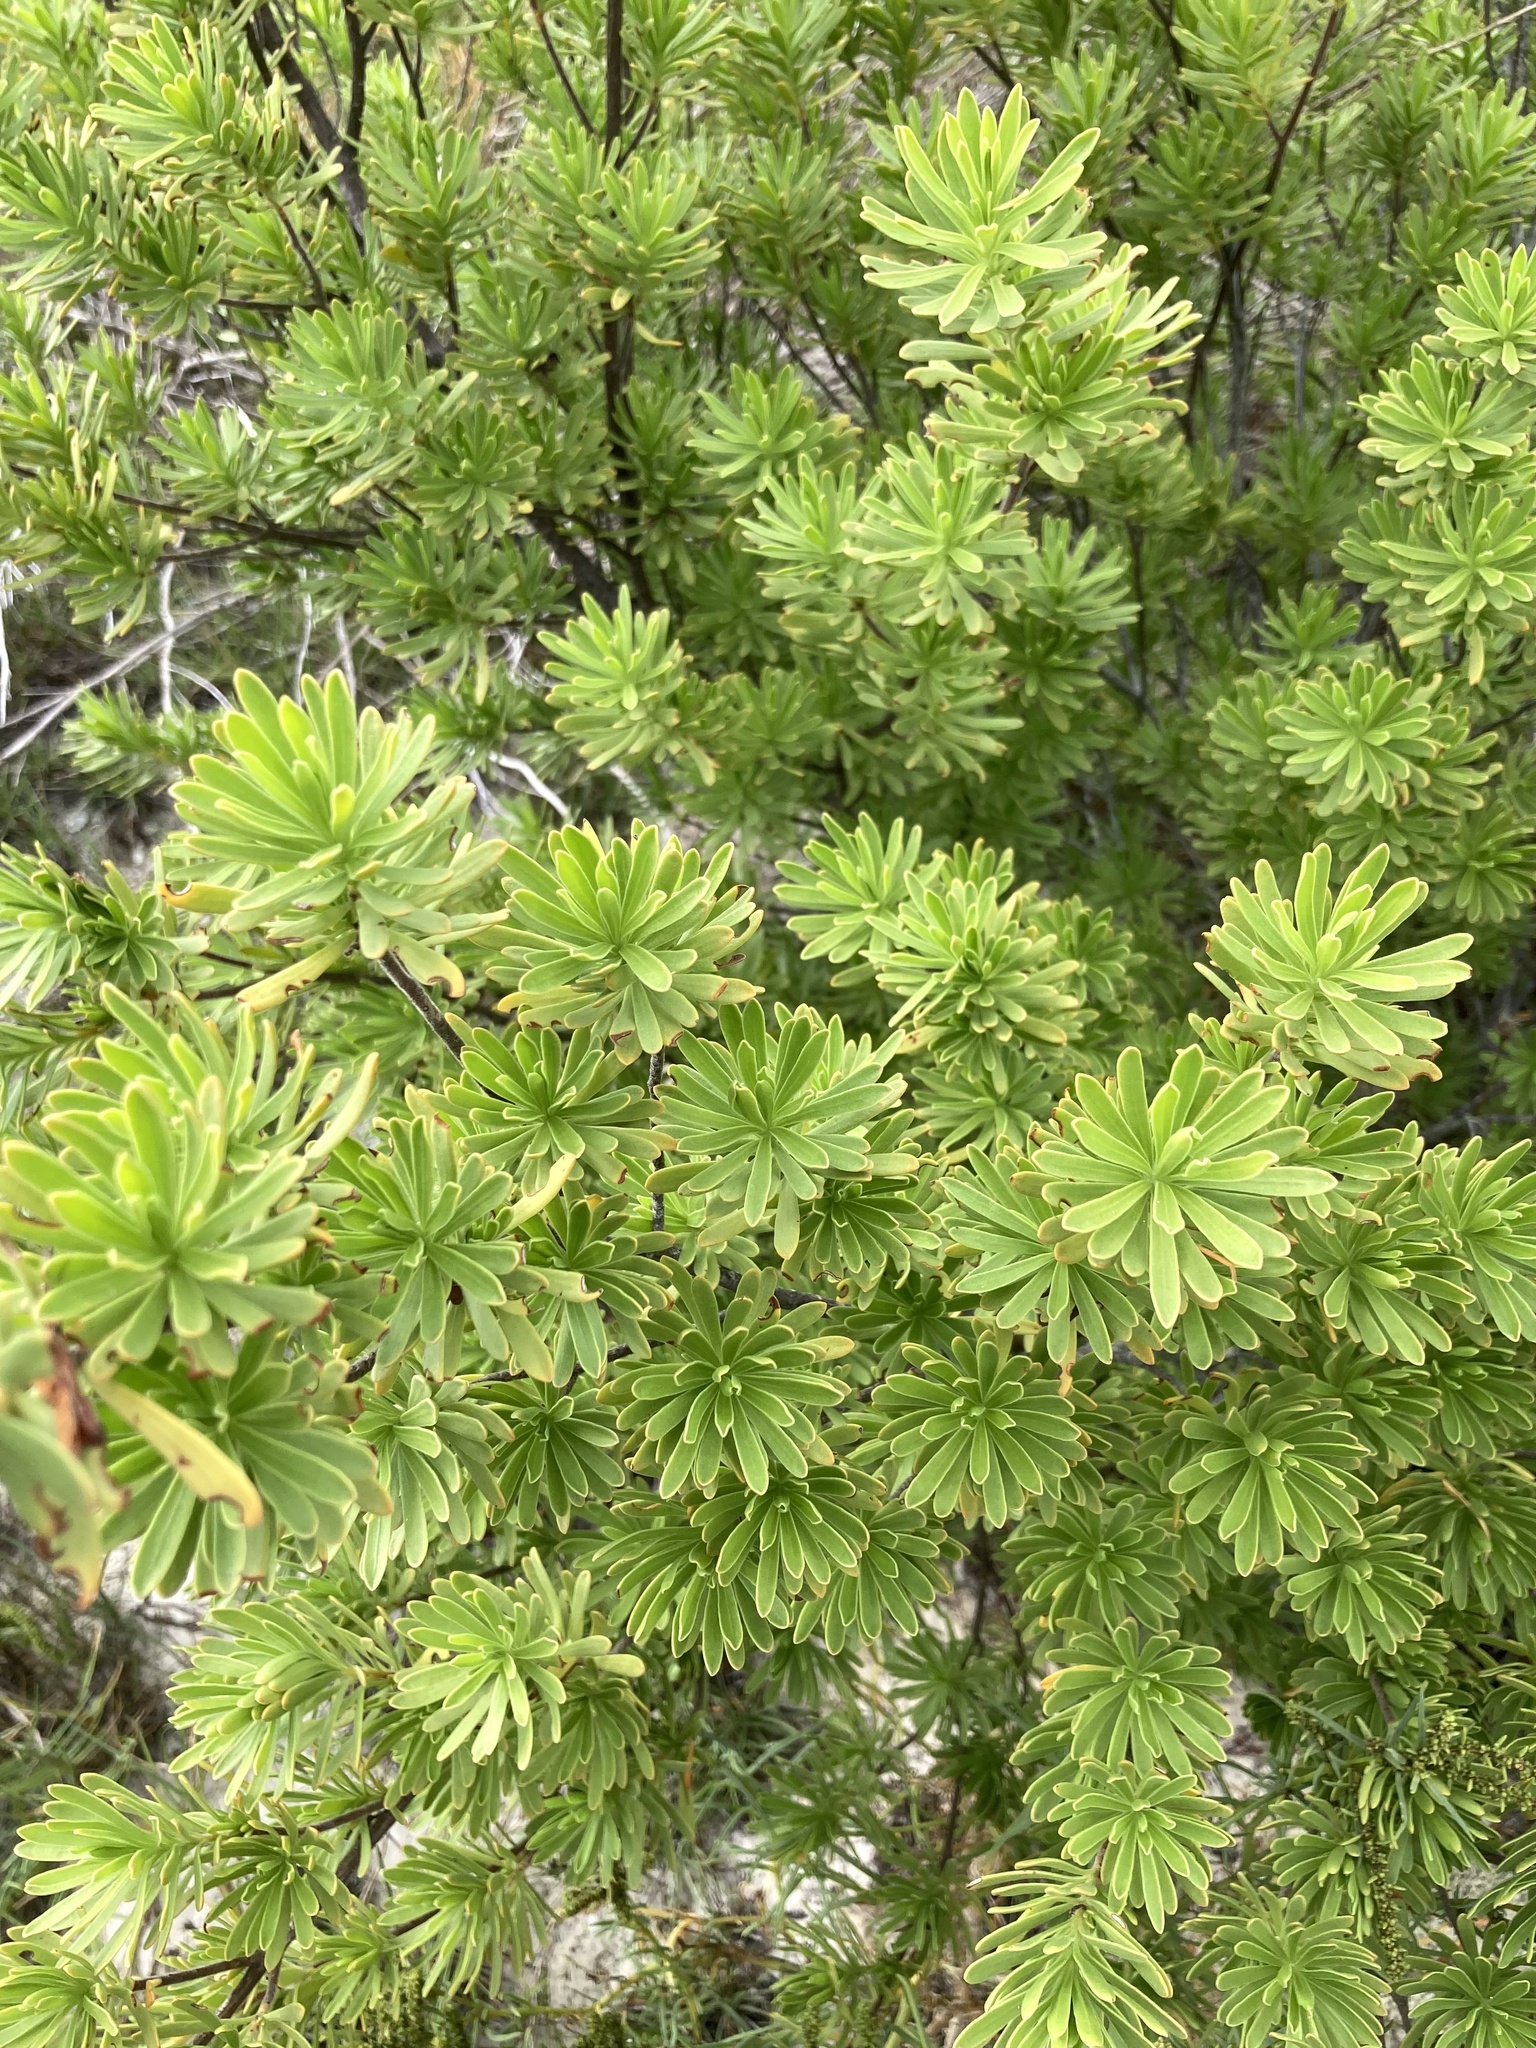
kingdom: Plantae
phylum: Tracheophyta
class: Magnoliopsida
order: Fabales
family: Surianaceae
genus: Suriana
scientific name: Suriana maritima
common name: Bay-cedar
